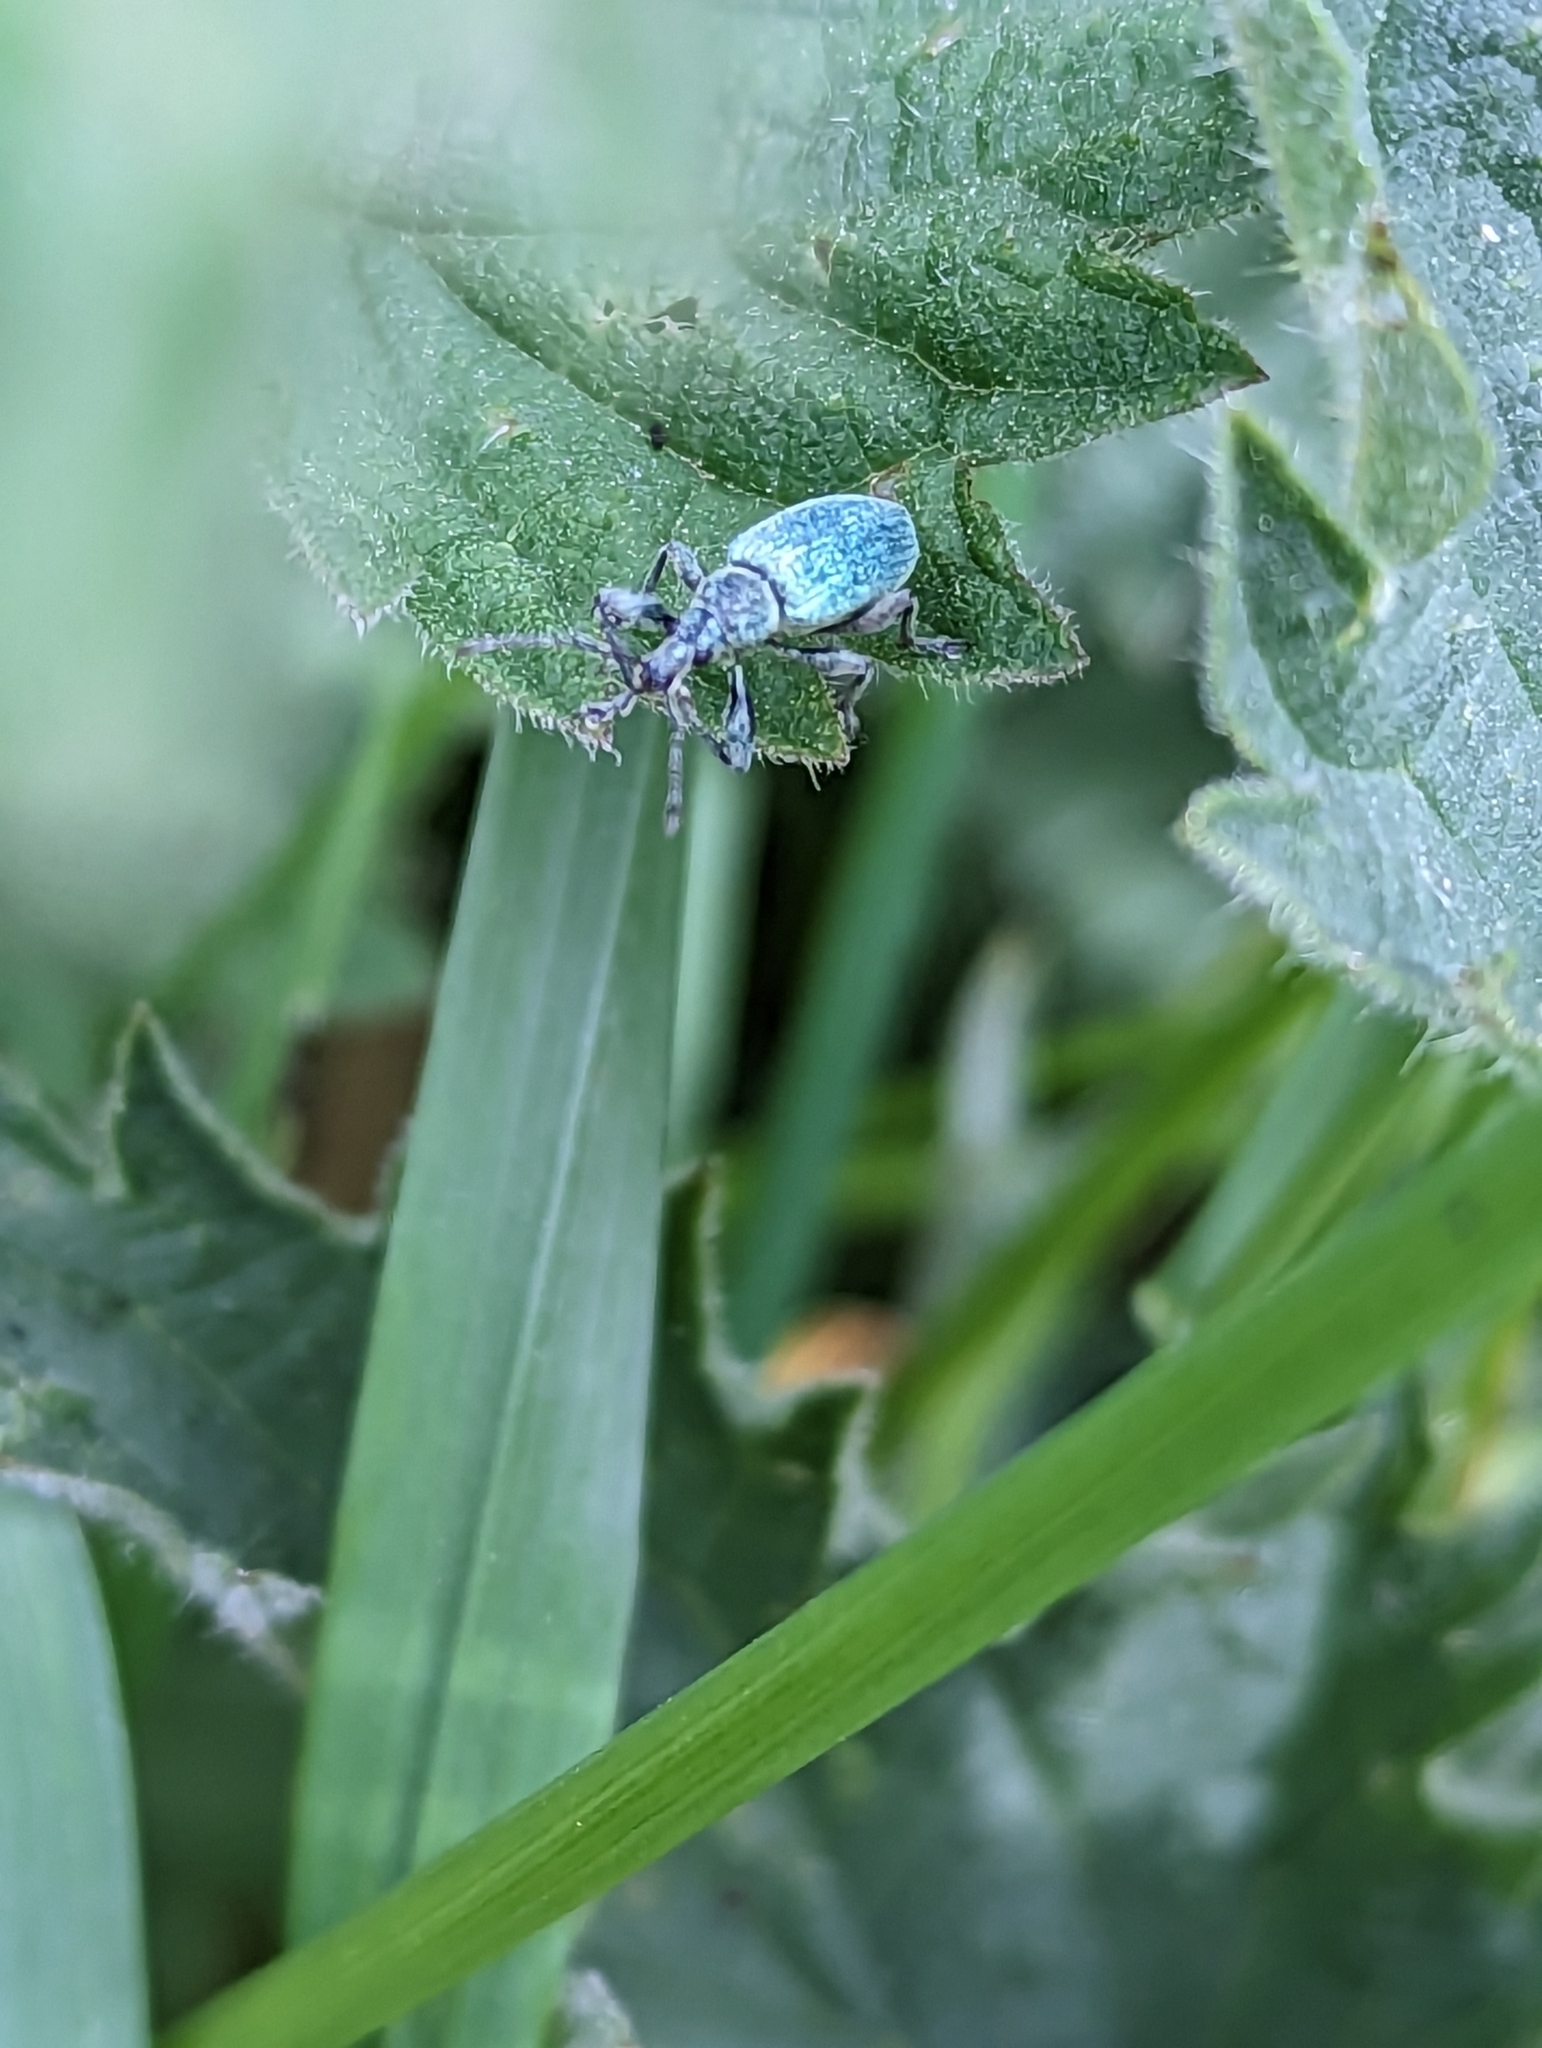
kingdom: Animalia
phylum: Arthropoda
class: Insecta
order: Coleoptera
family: Curculionidae
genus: Phyllobius
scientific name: Phyllobius pomaceus
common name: Green nettle weevil
